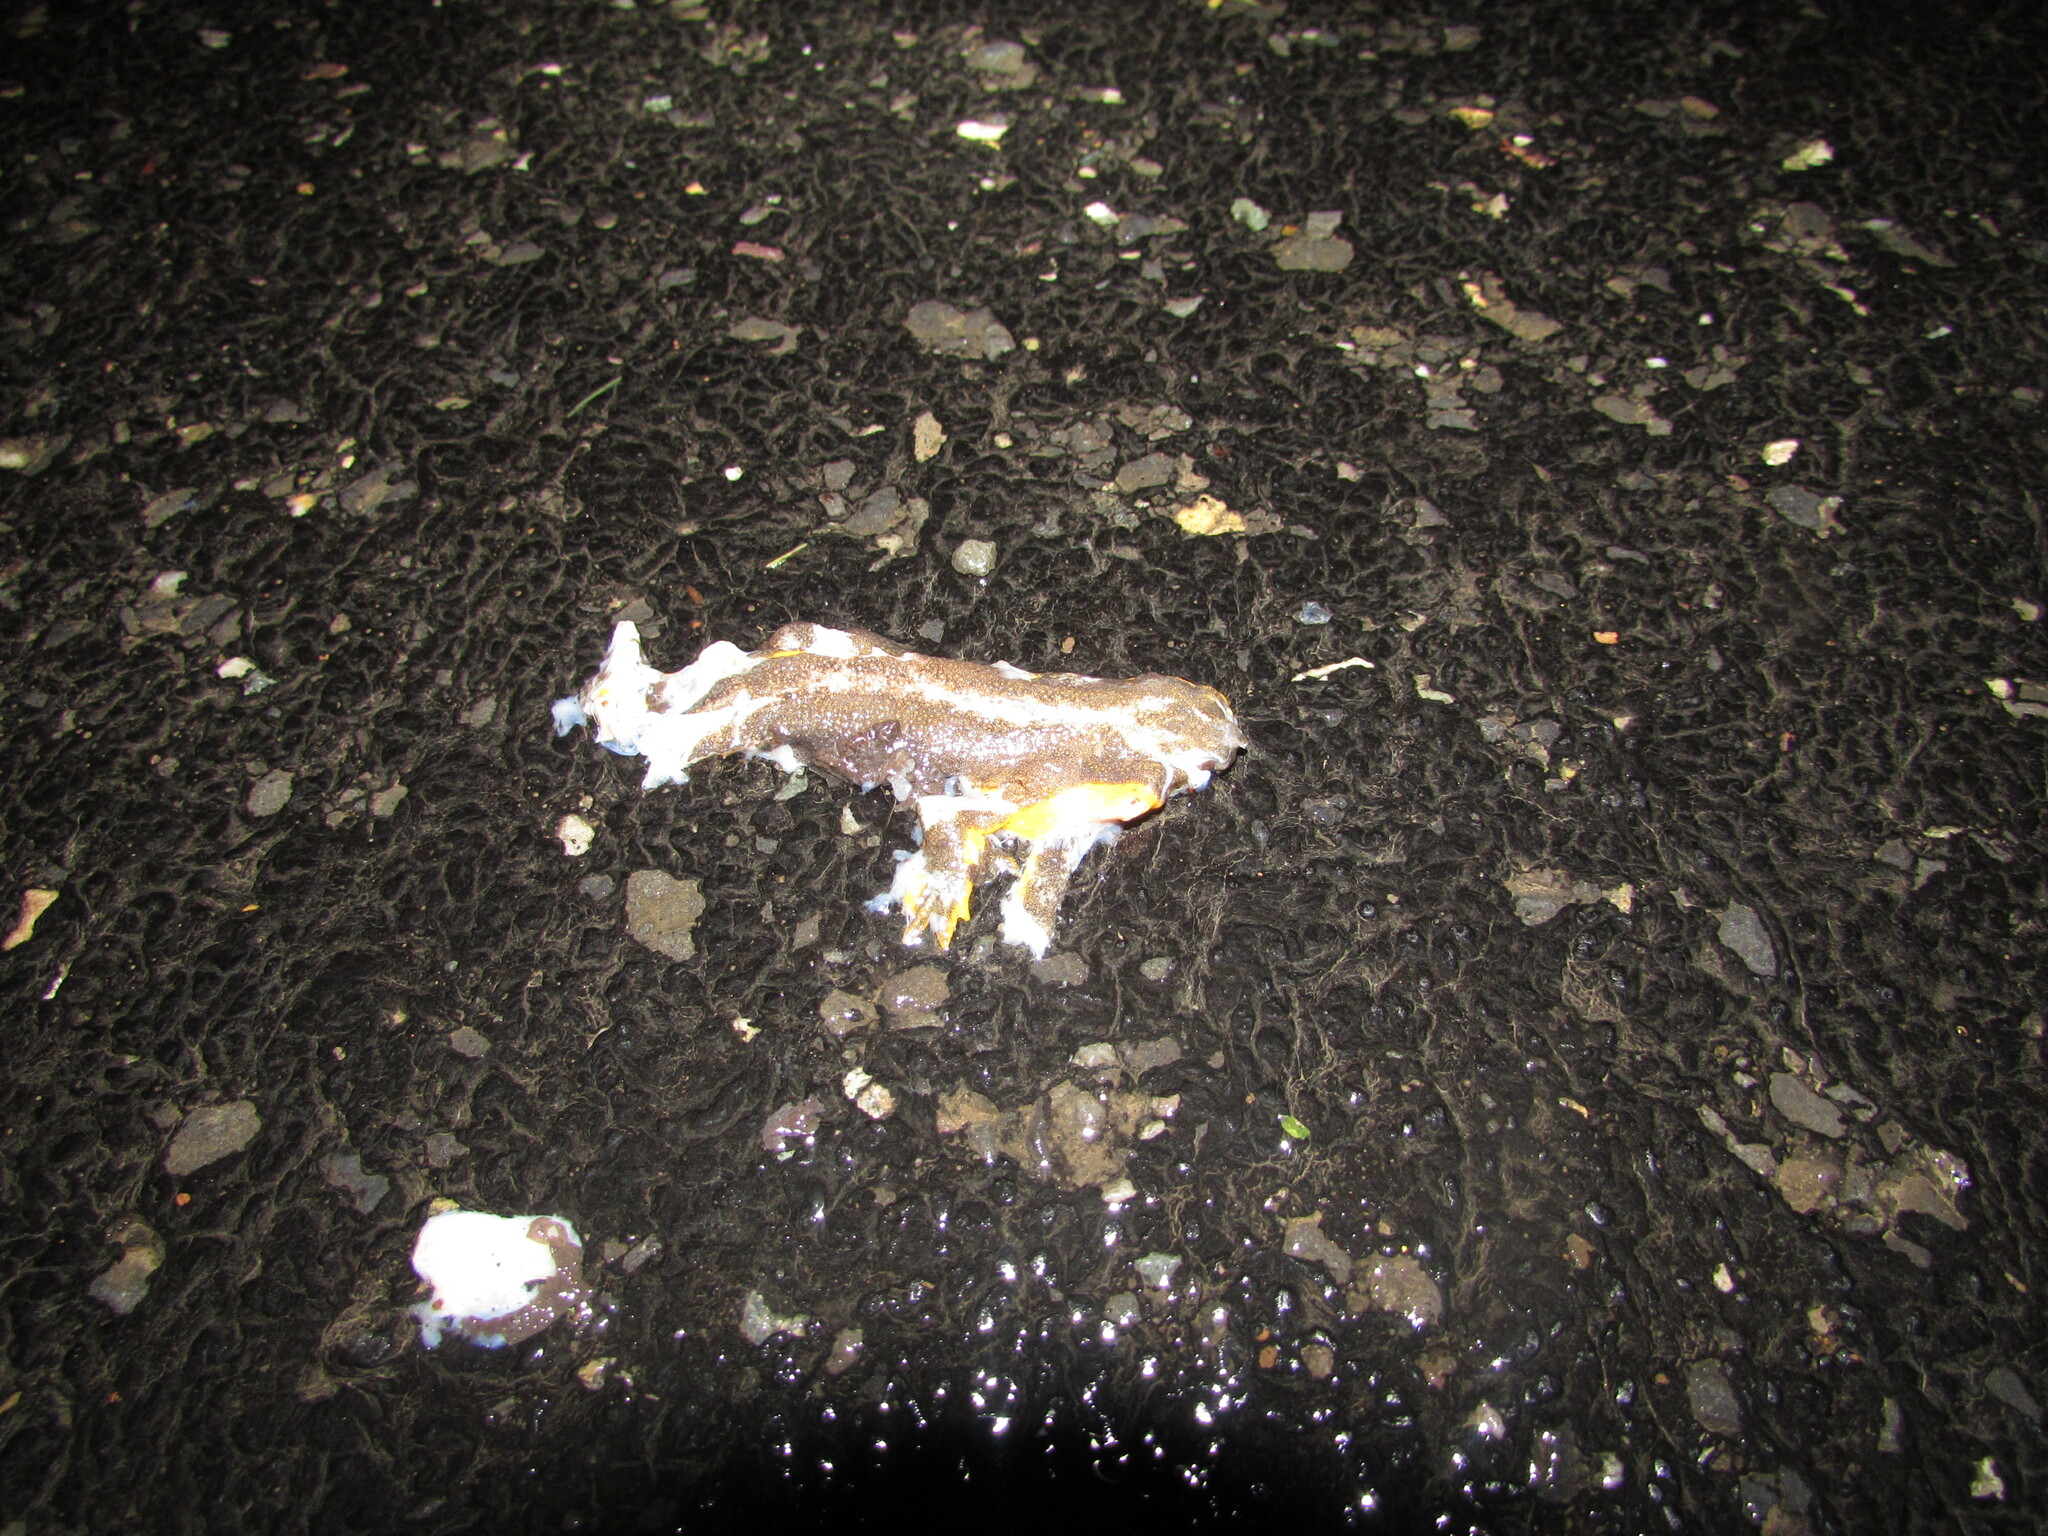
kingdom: Animalia
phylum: Chordata
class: Amphibia
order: Caudata
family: Salamandridae
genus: Taricha
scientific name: Taricha granulosa
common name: Roughskin newt
